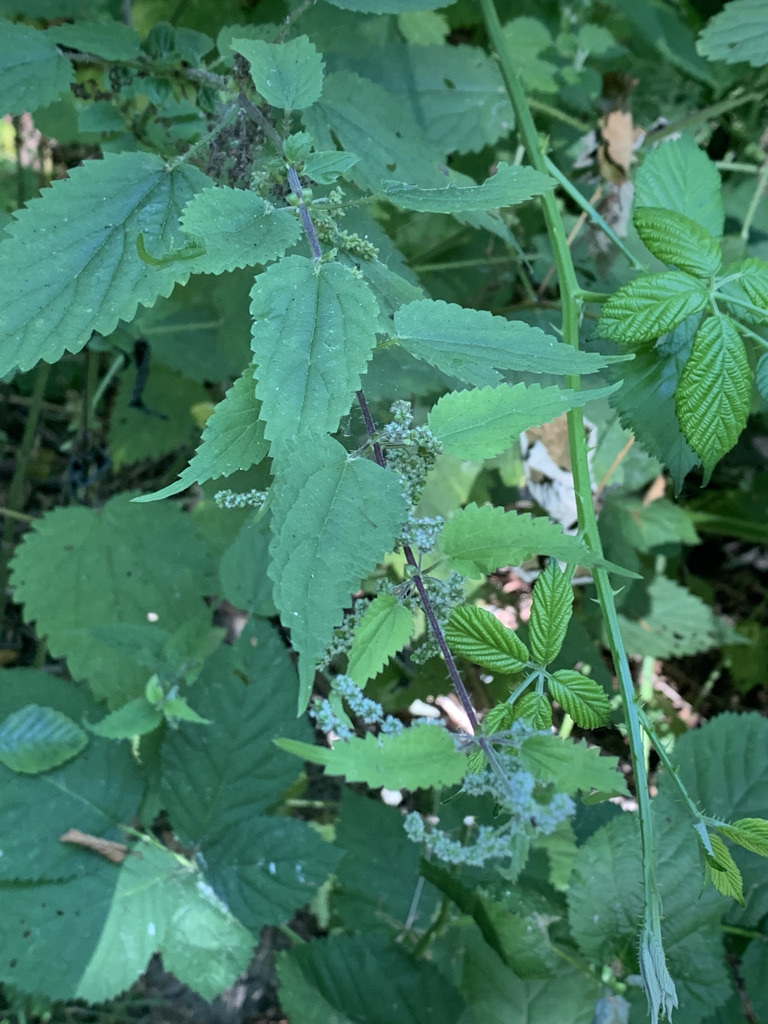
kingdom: Plantae
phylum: Tracheophyta
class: Magnoliopsida
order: Rosales
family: Urticaceae
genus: Urtica
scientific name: Urtica gracilis
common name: Slender stinging nettle
